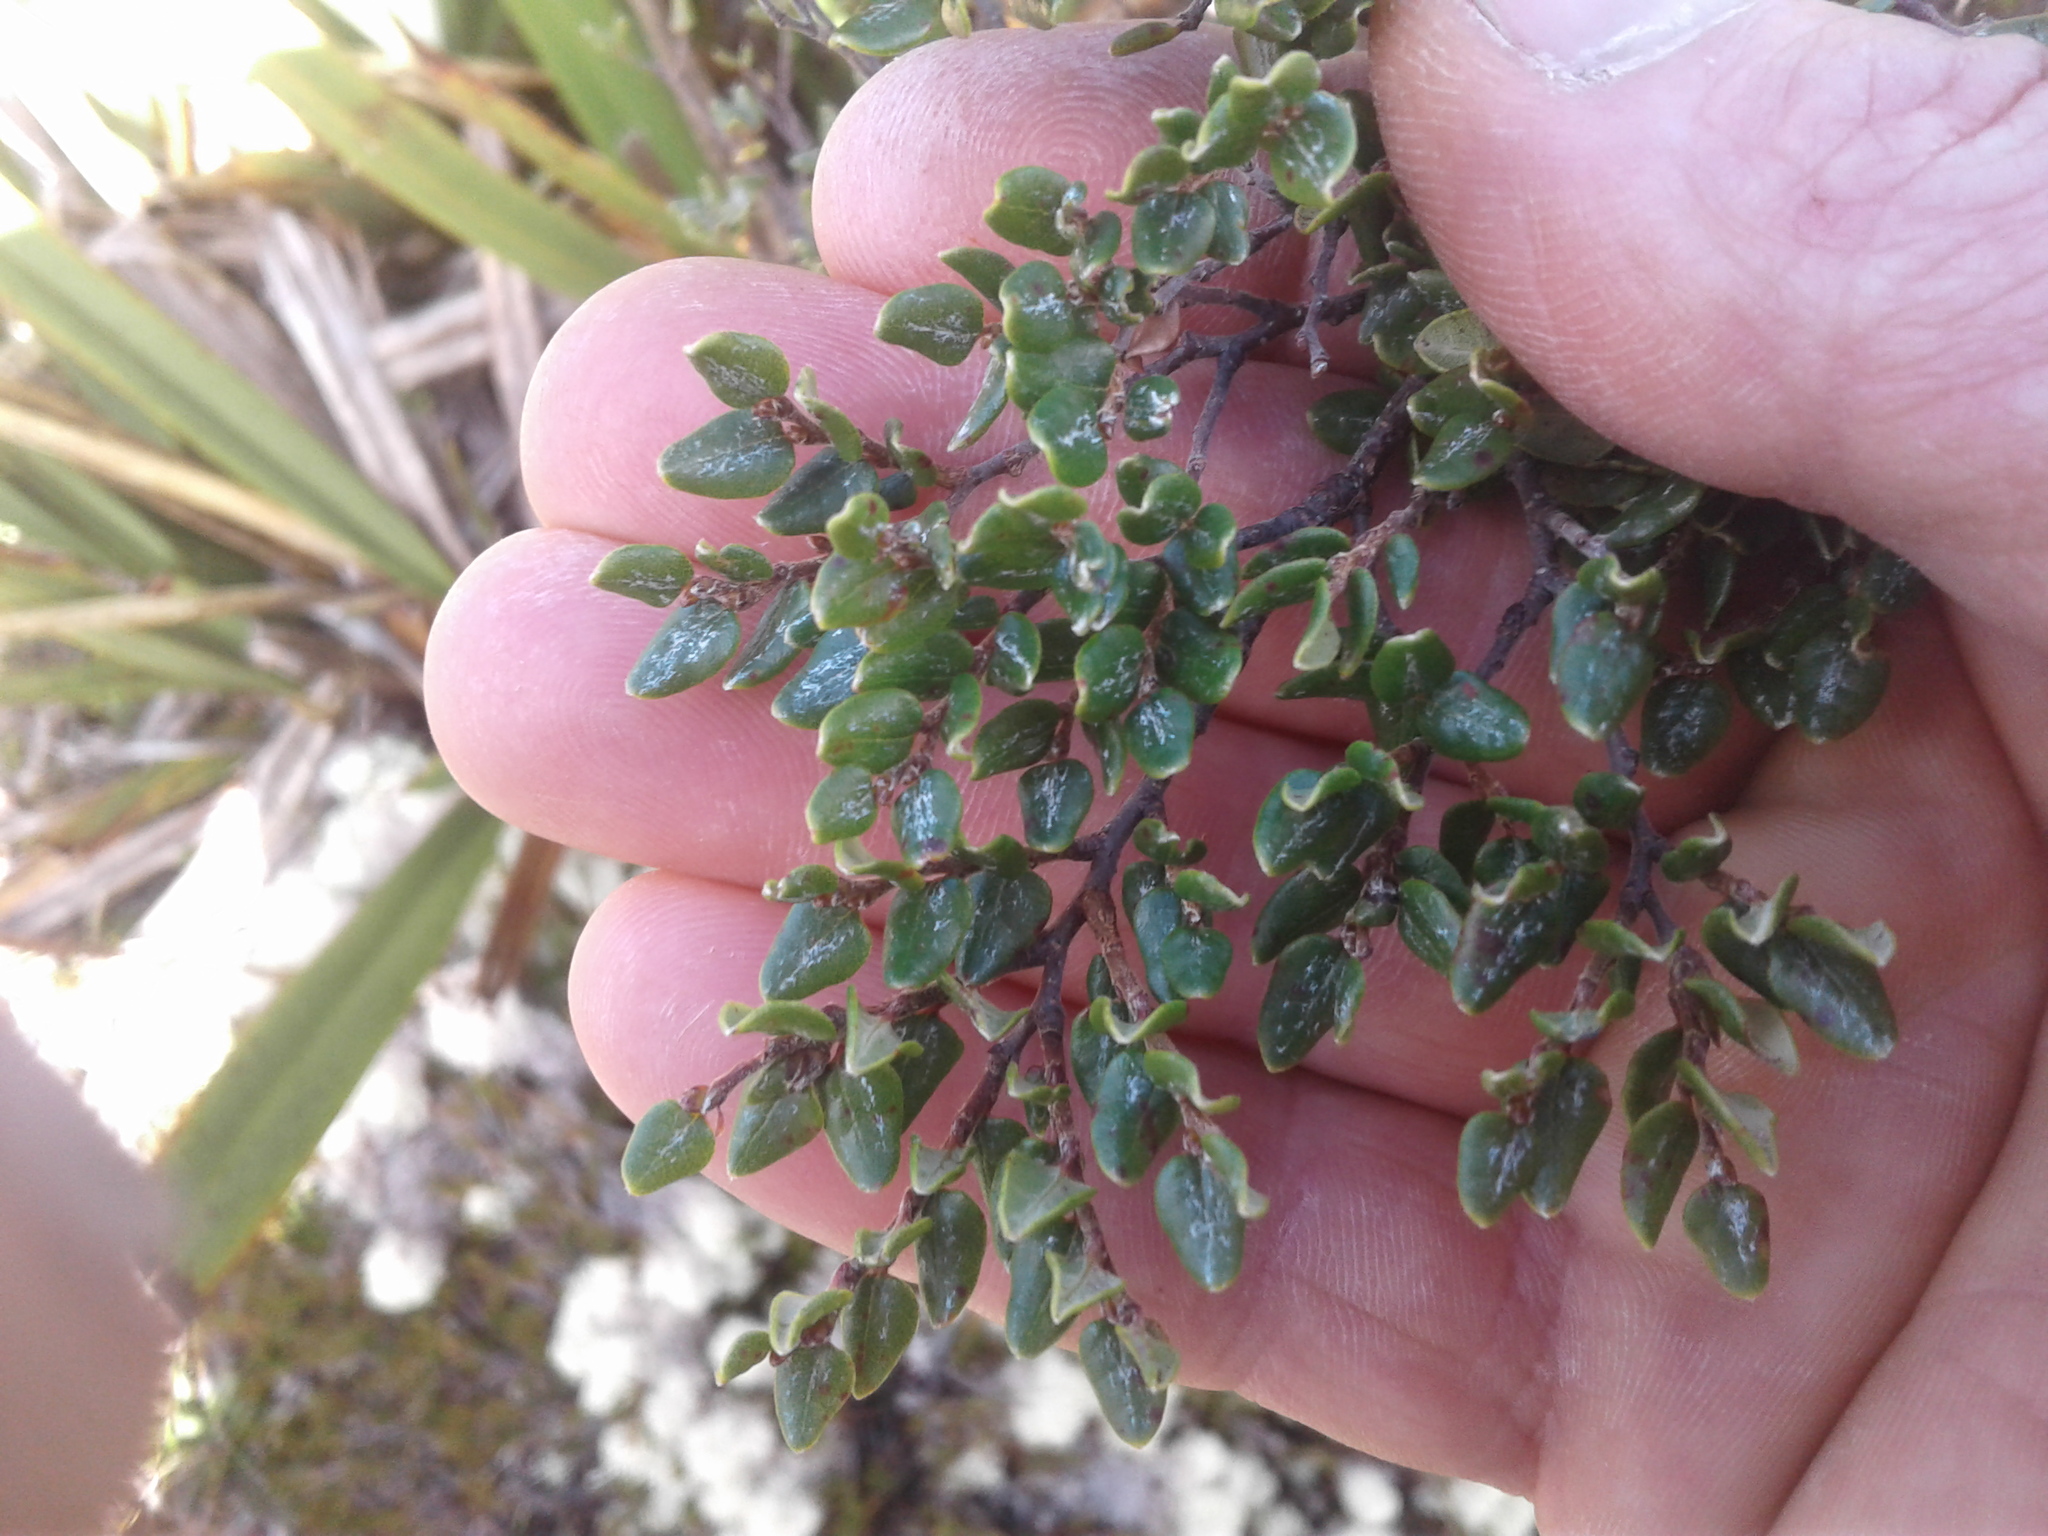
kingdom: Plantae
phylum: Tracheophyta
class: Magnoliopsida
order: Fagales
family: Nothofagaceae
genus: Nothofagus
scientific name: Nothofagus cliffortioides
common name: Mountain beech
